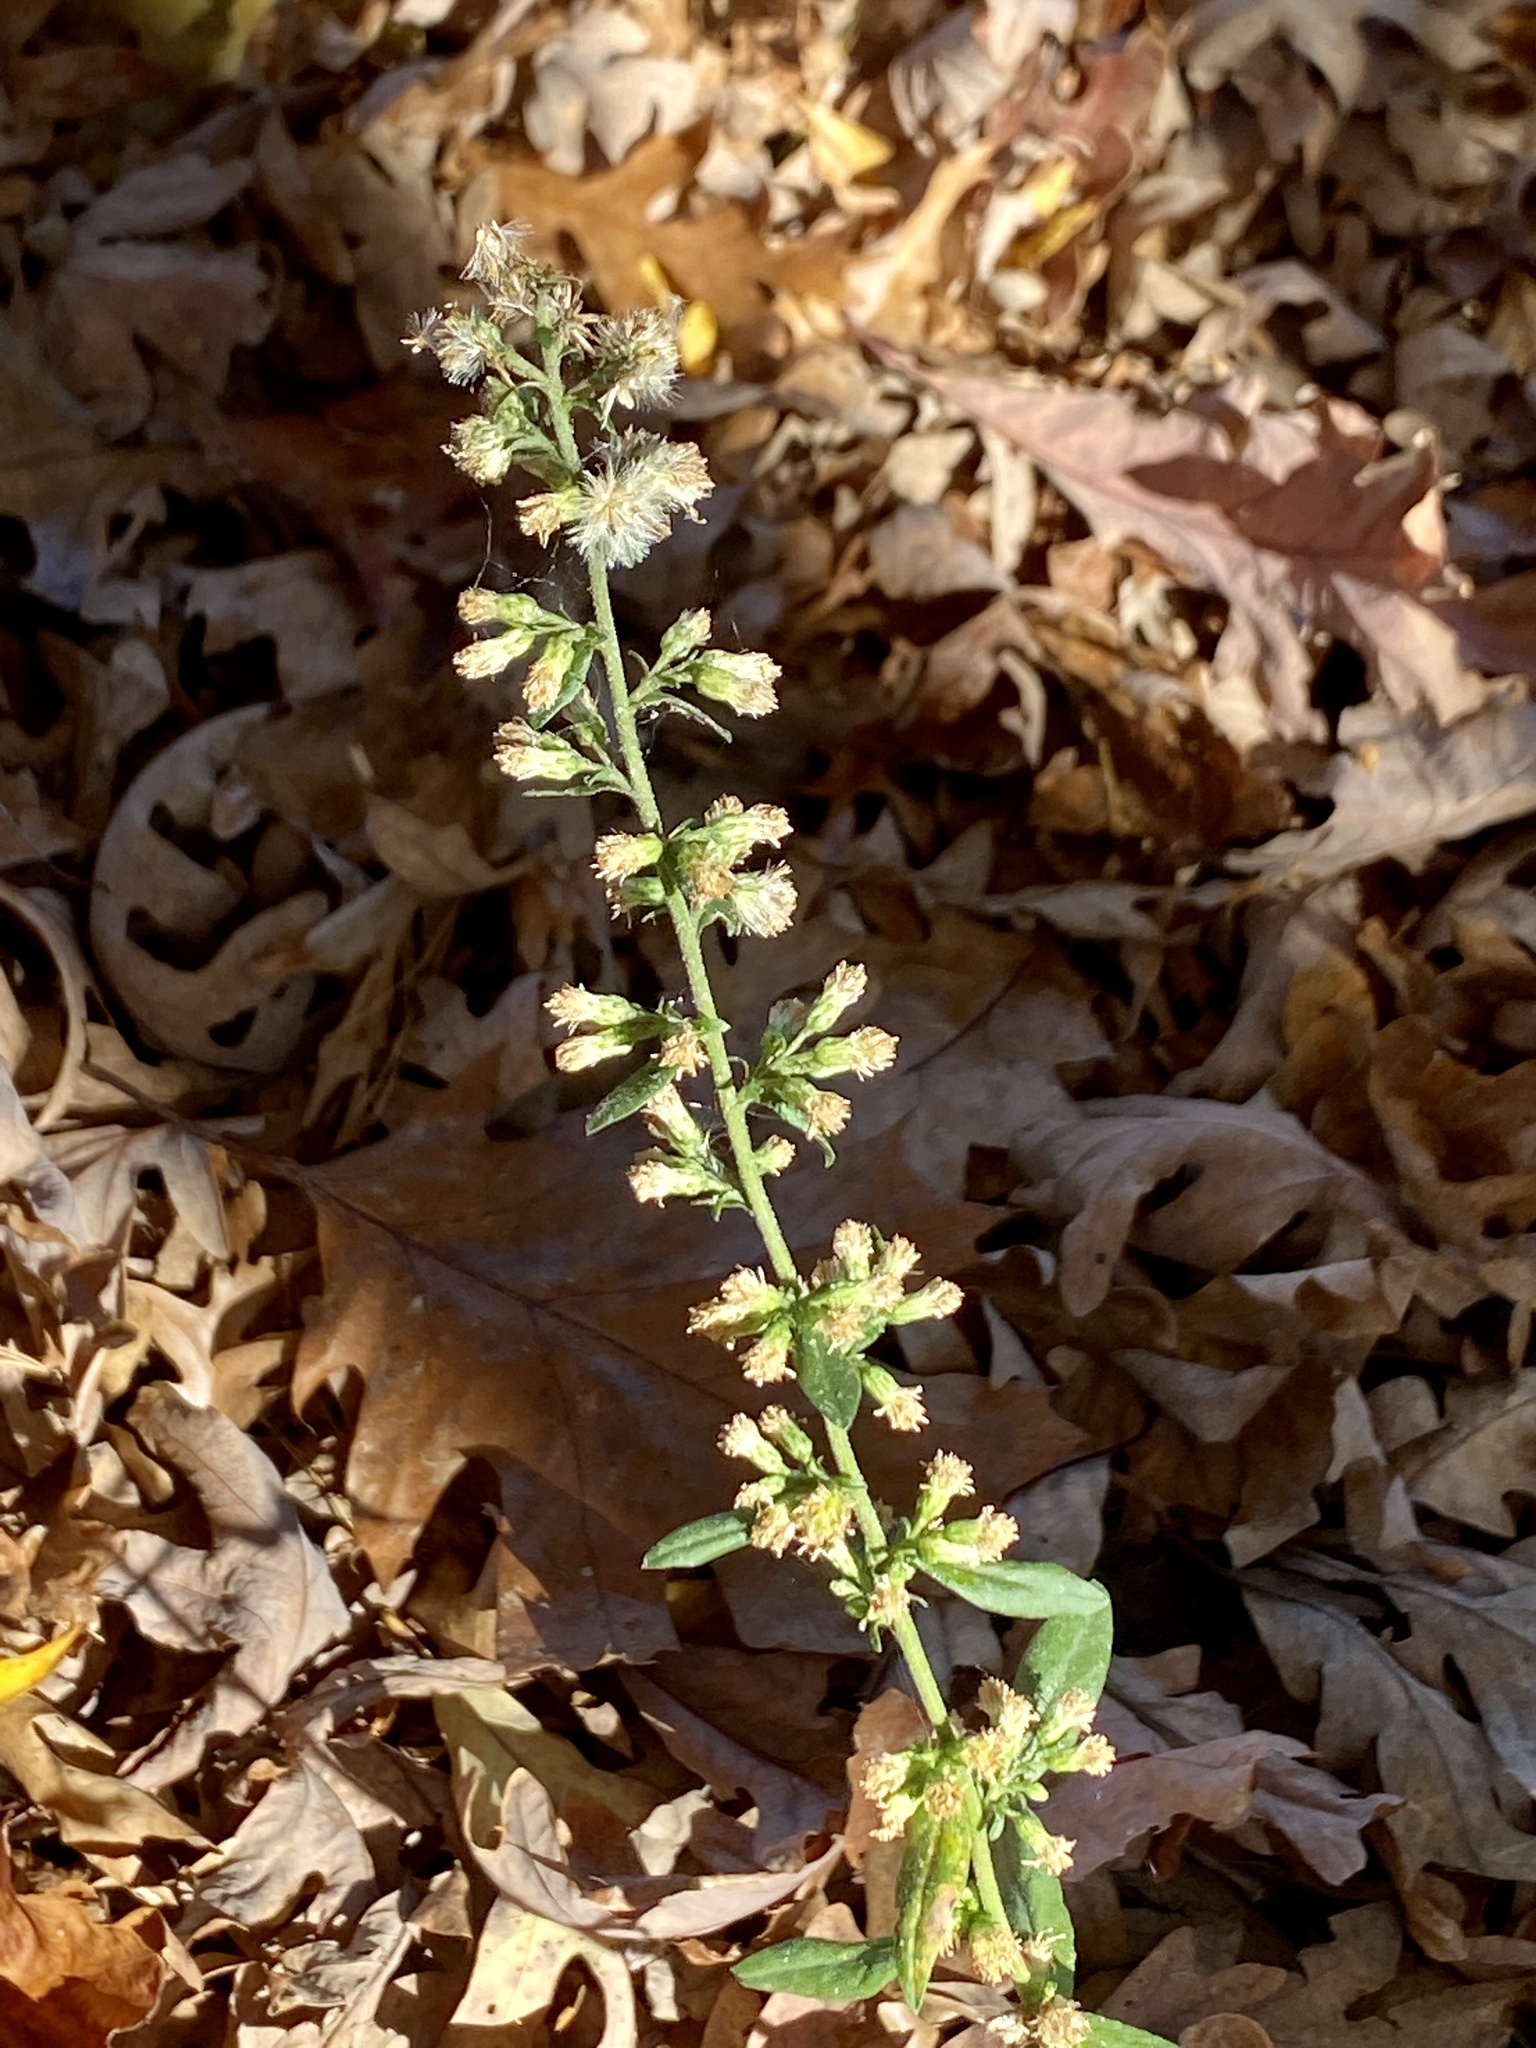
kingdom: Plantae
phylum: Tracheophyta
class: Magnoliopsida
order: Asterales
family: Asteraceae
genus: Solidago
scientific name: Solidago bicolor
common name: Silverrod
